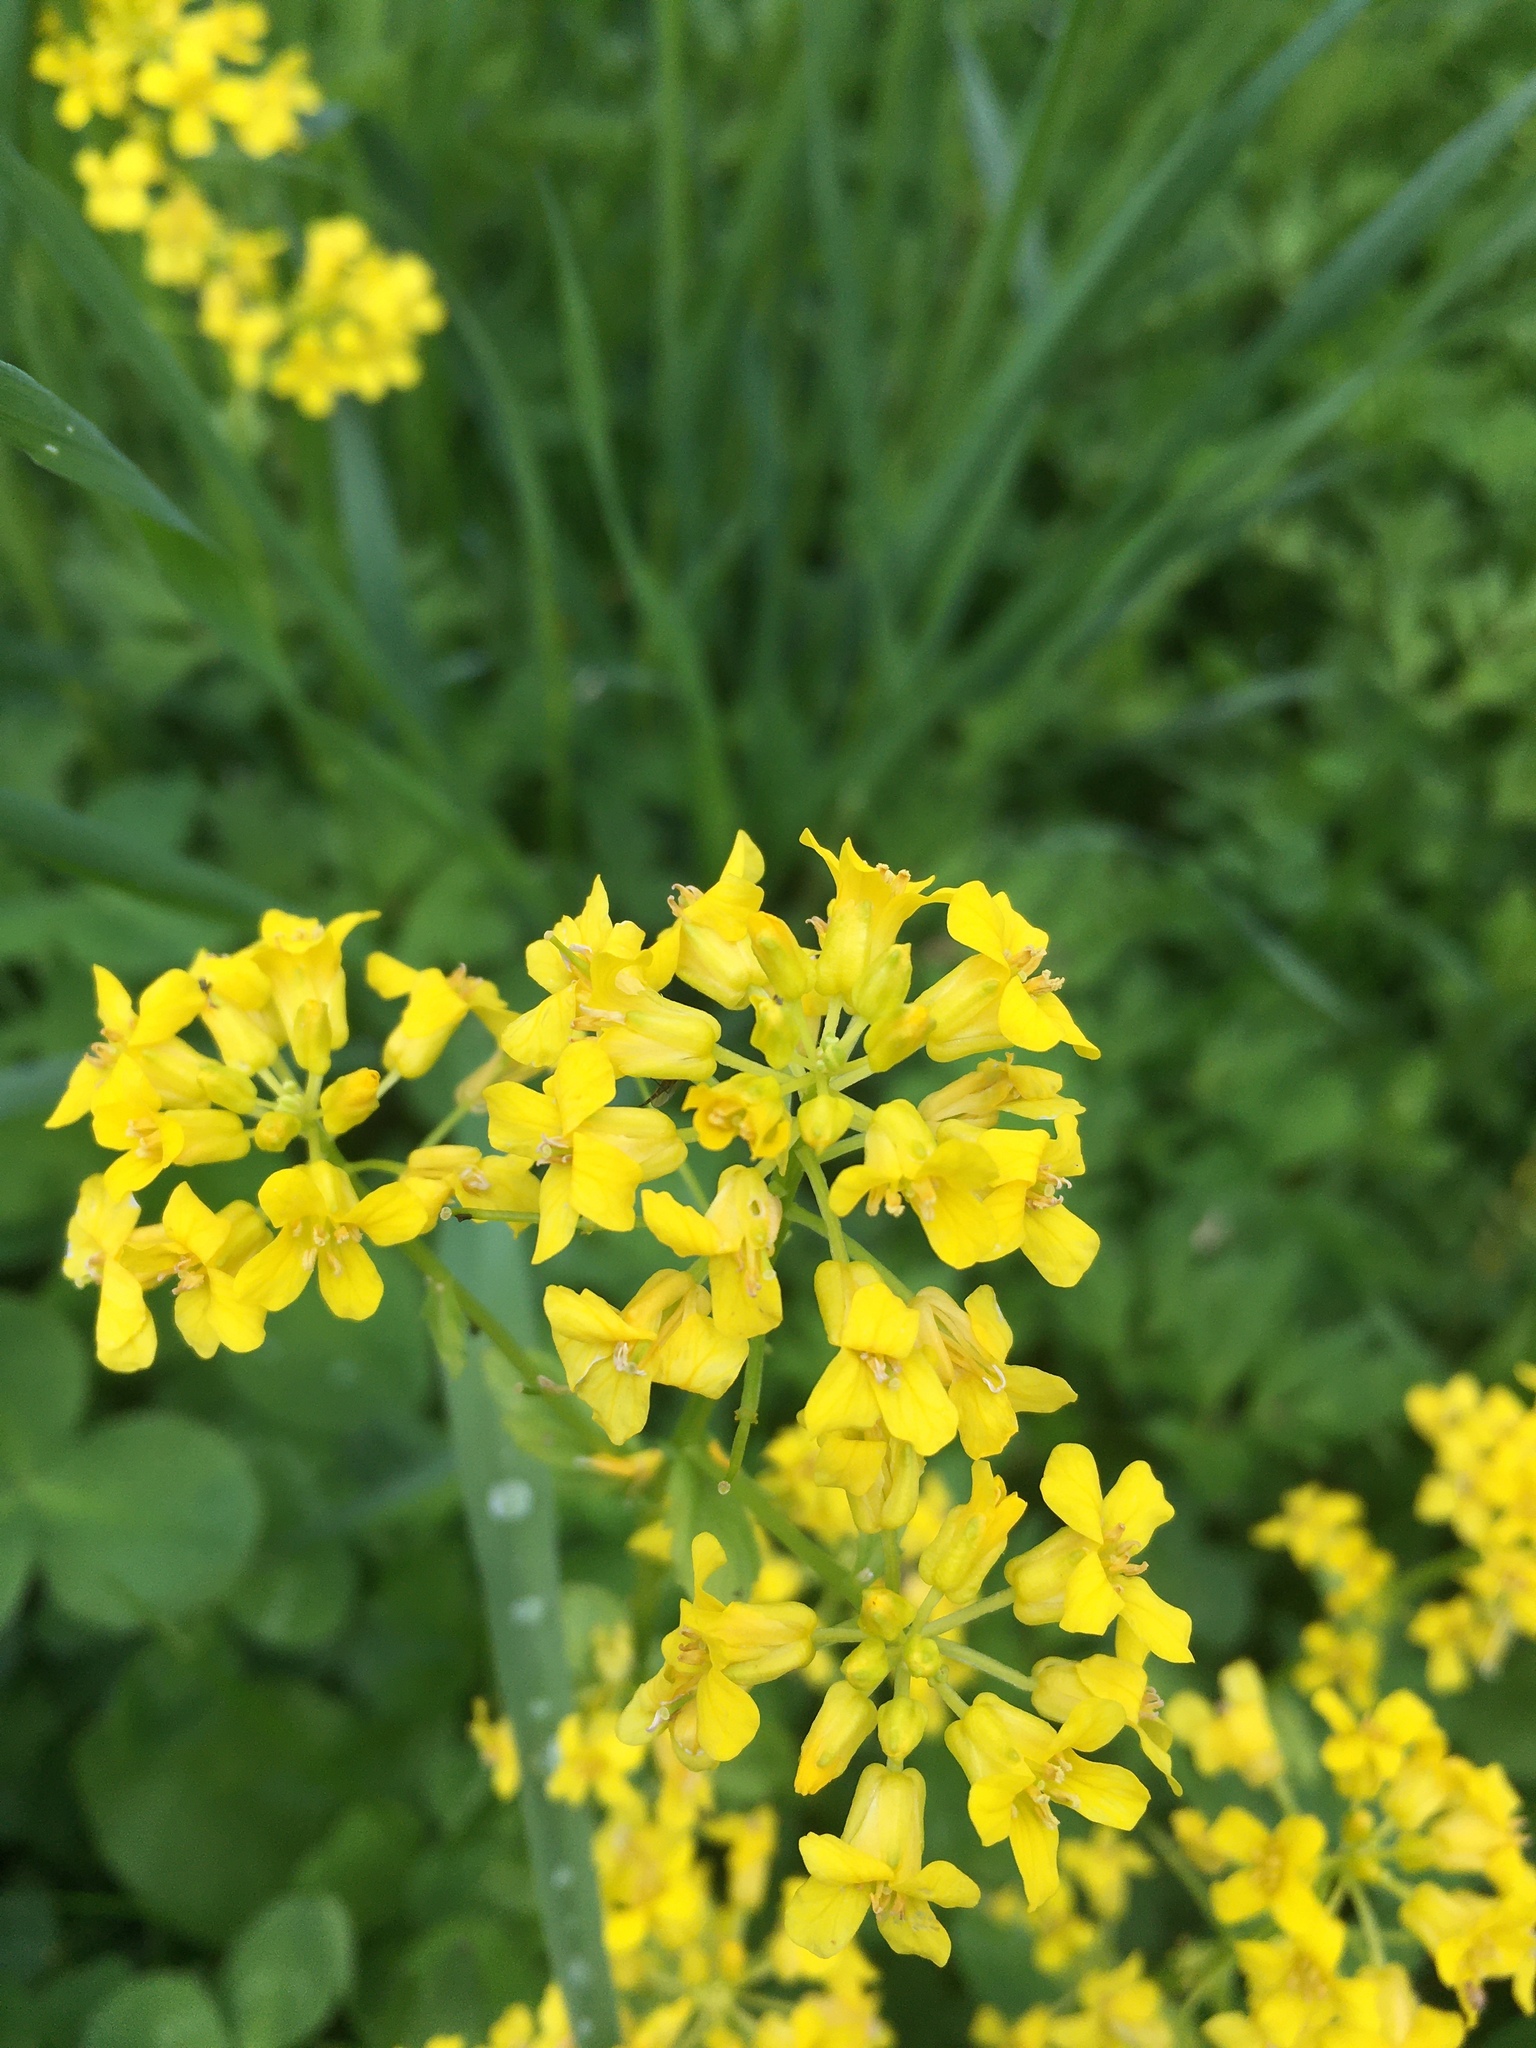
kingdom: Plantae
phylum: Tracheophyta
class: Magnoliopsida
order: Brassicales
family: Brassicaceae
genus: Barbarea
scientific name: Barbarea vulgaris
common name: Cressy-greens
